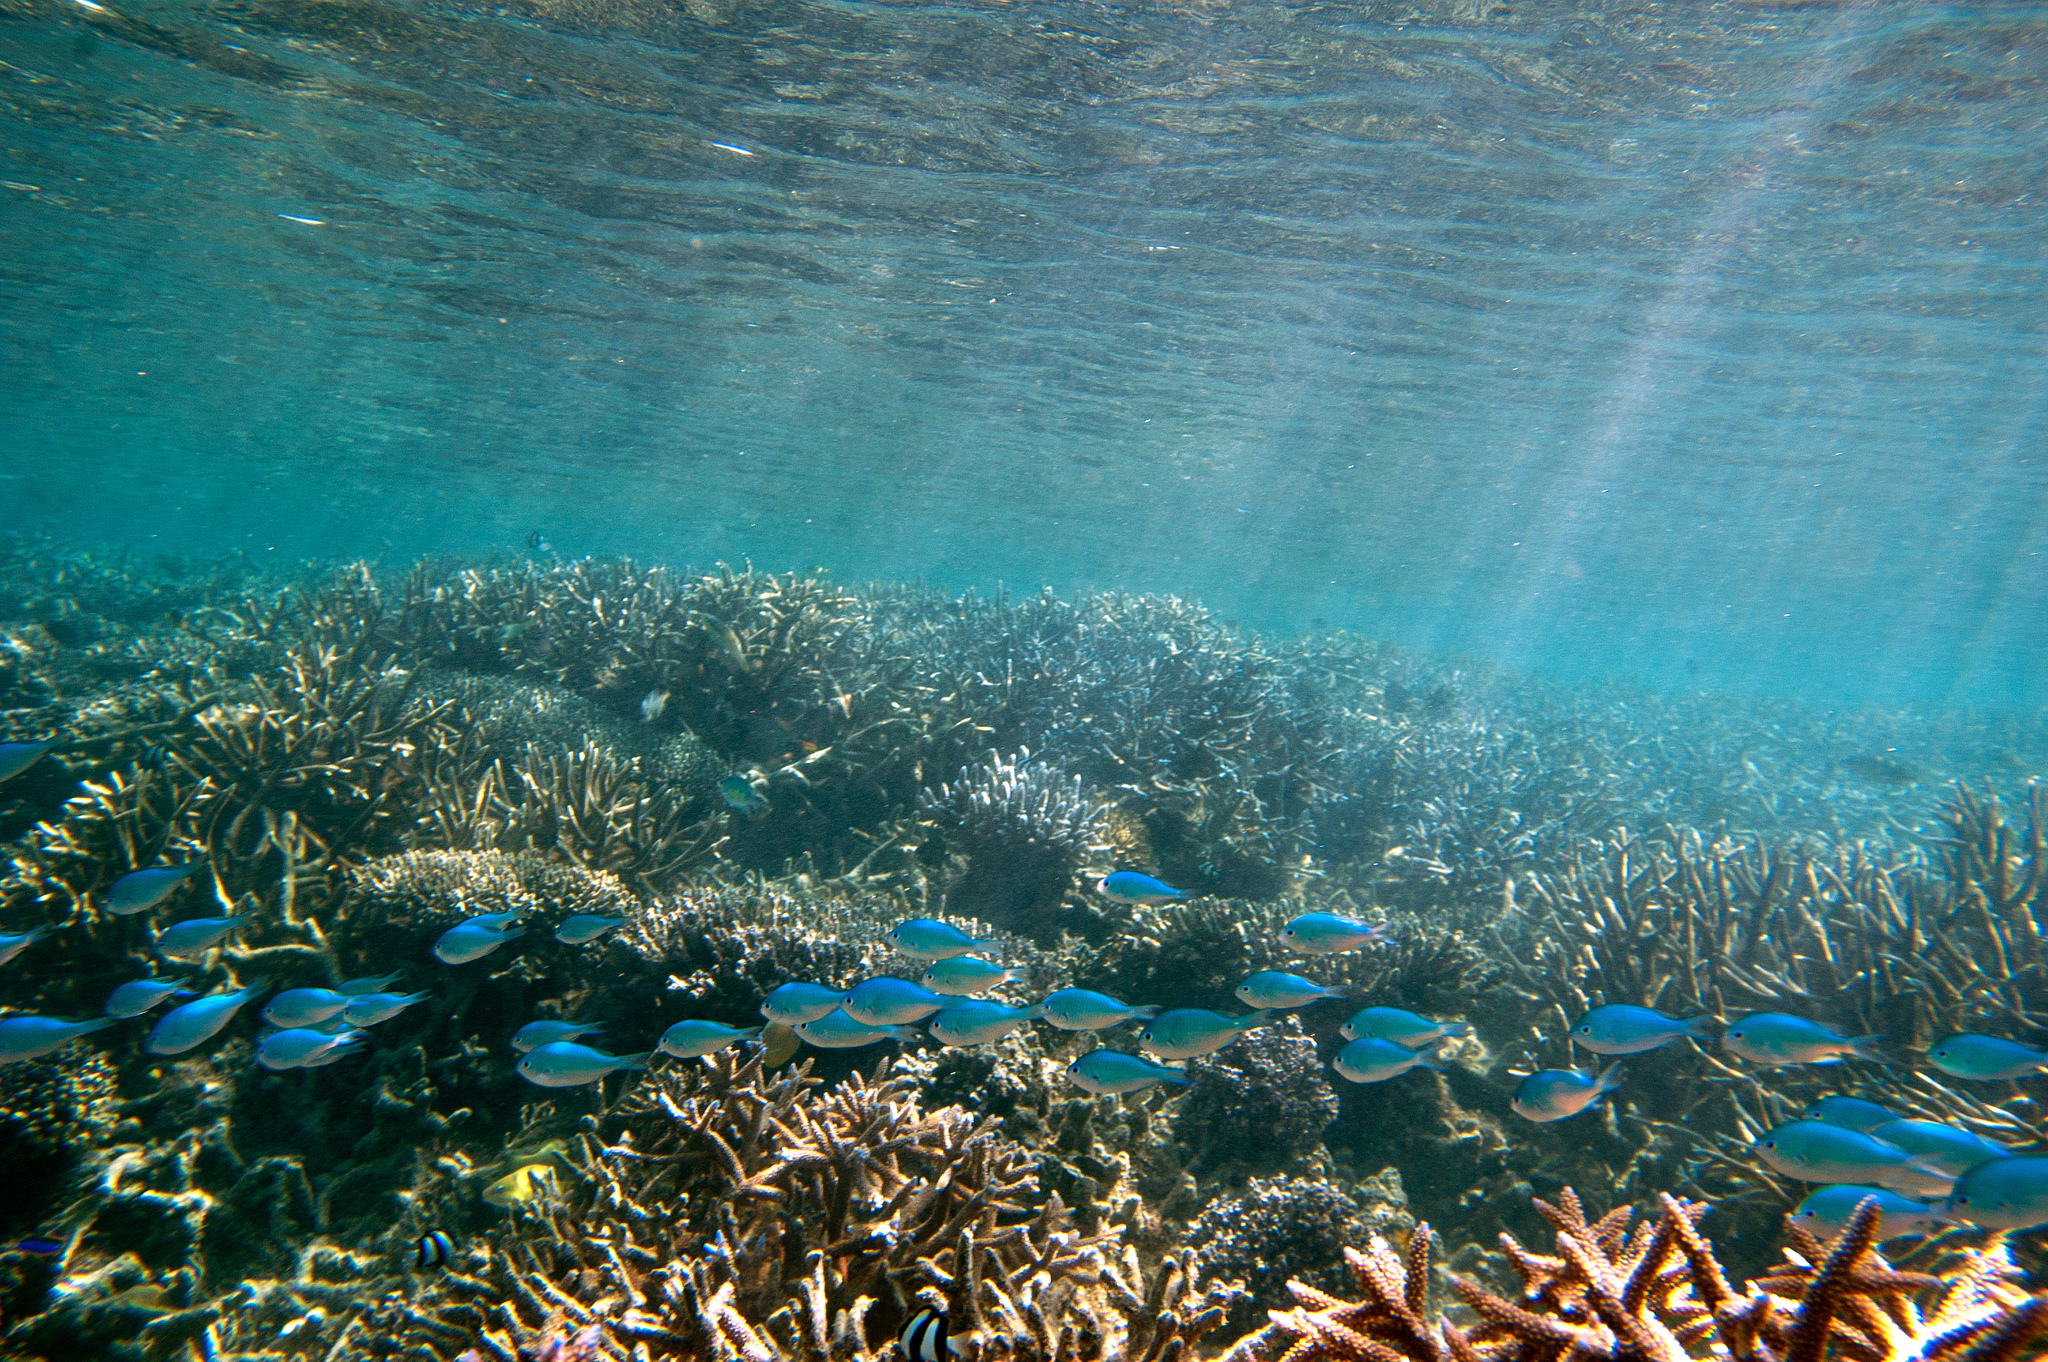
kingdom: Animalia
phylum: Chordata
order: Perciformes
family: Pomacentridae
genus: Chromis
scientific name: Chromis atripectoralis
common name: Black-axil chromis
